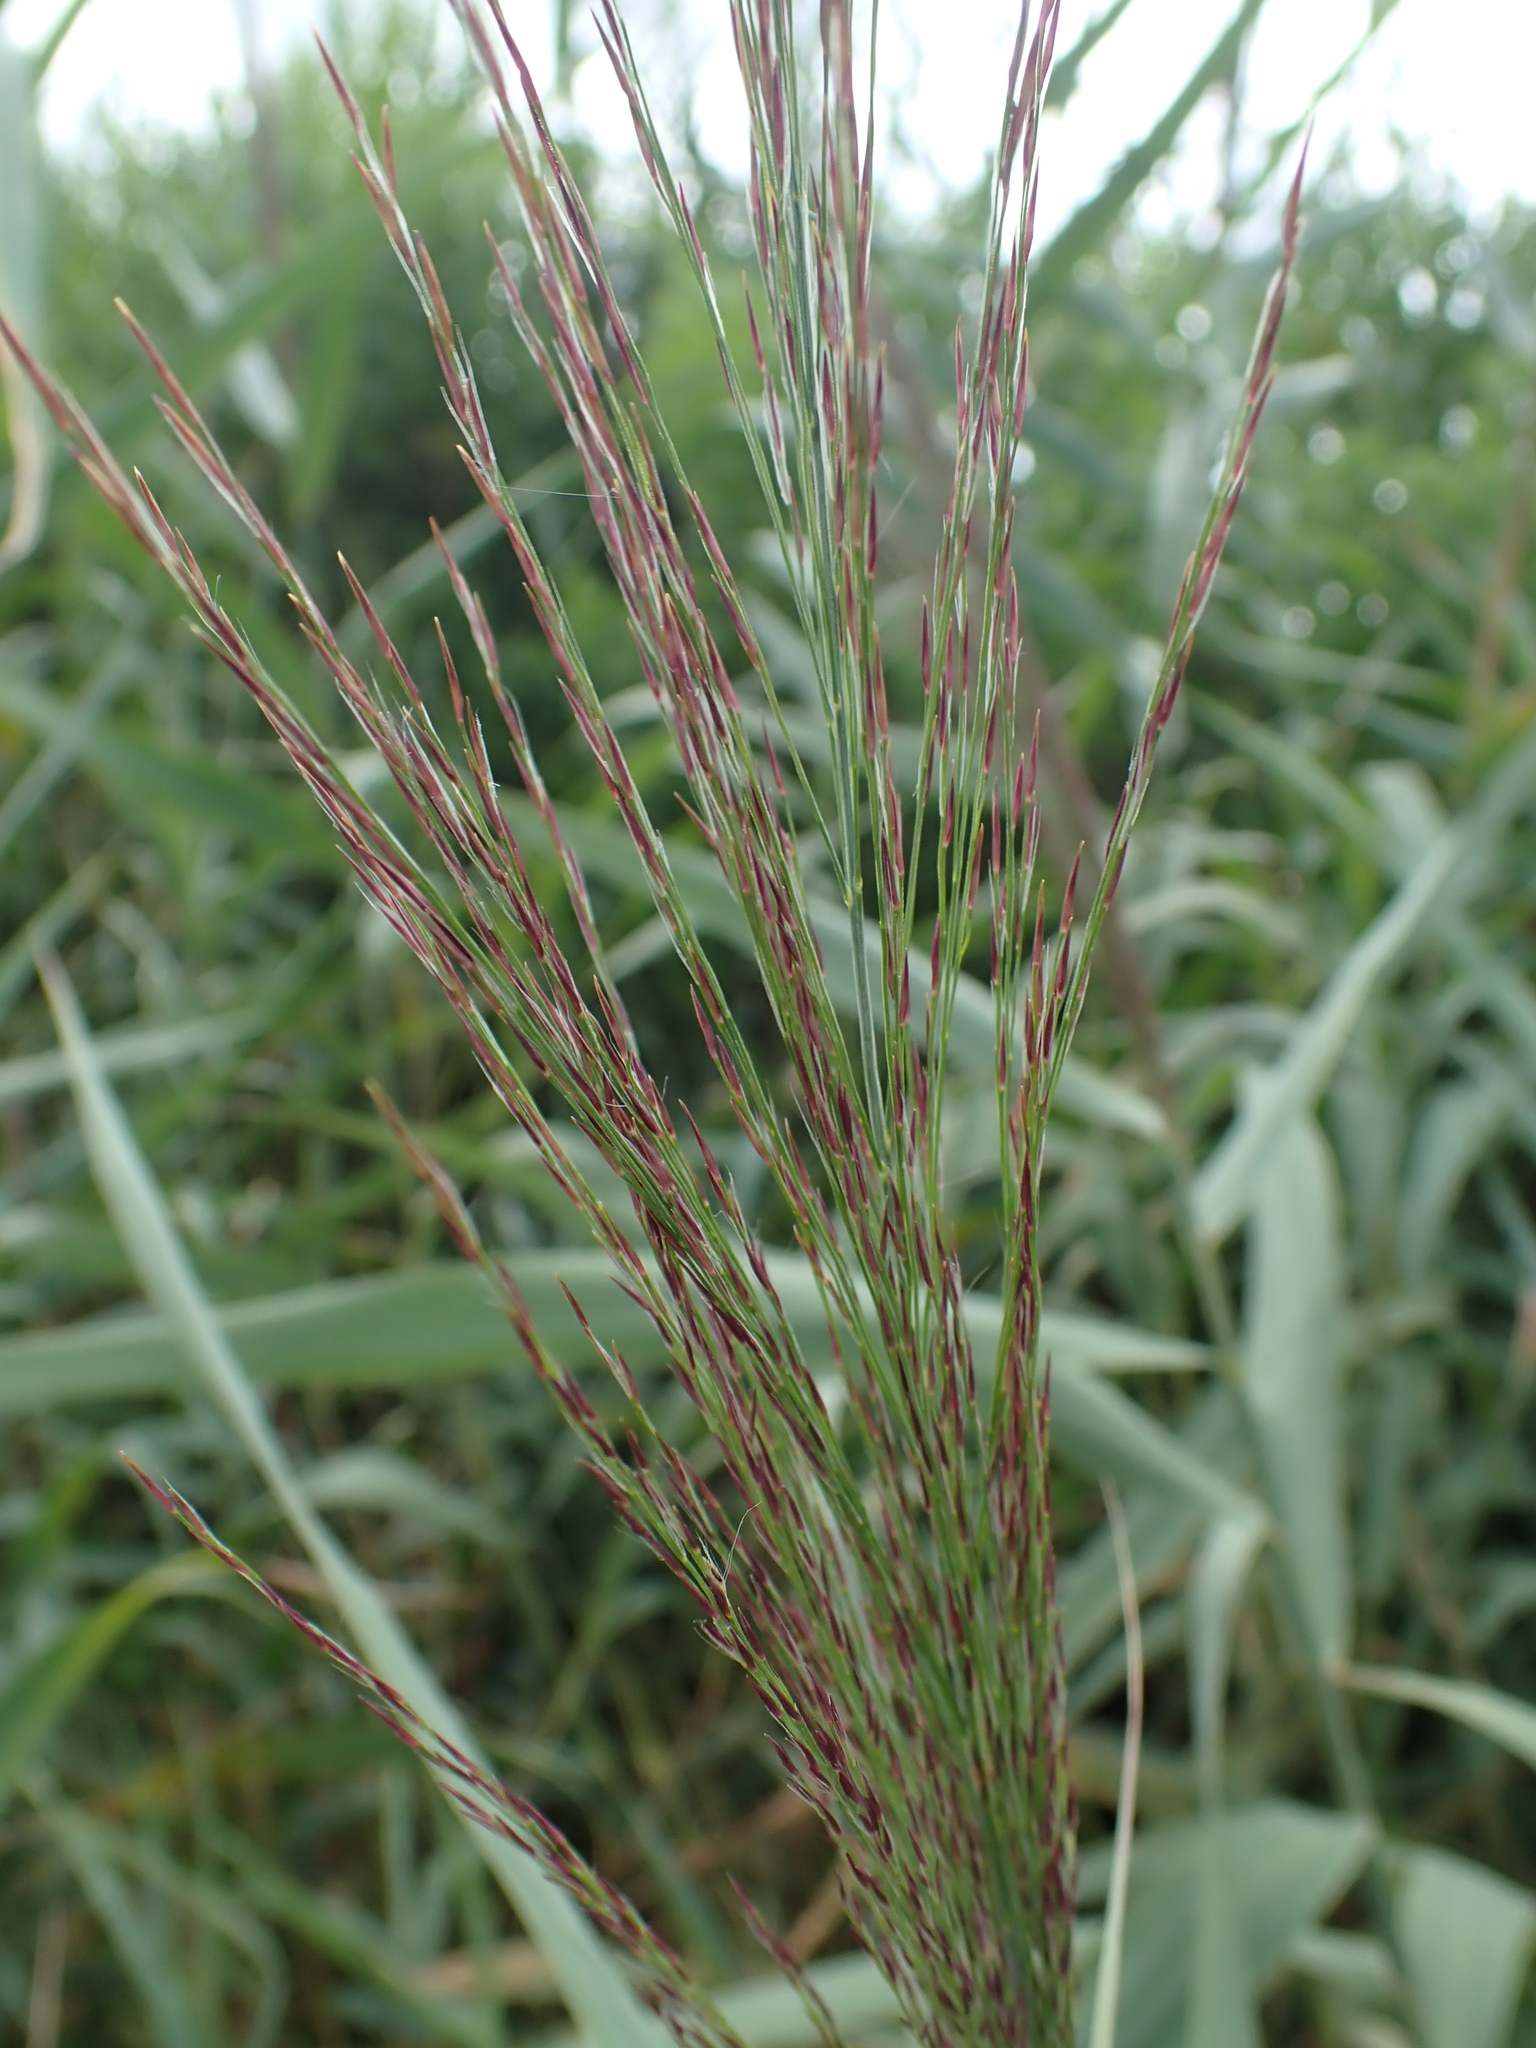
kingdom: Plantae
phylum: Tracheophyta
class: Liliopsida
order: Poales
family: Poaceae
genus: Phragmites
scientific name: Phragmites australis
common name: Common reed
